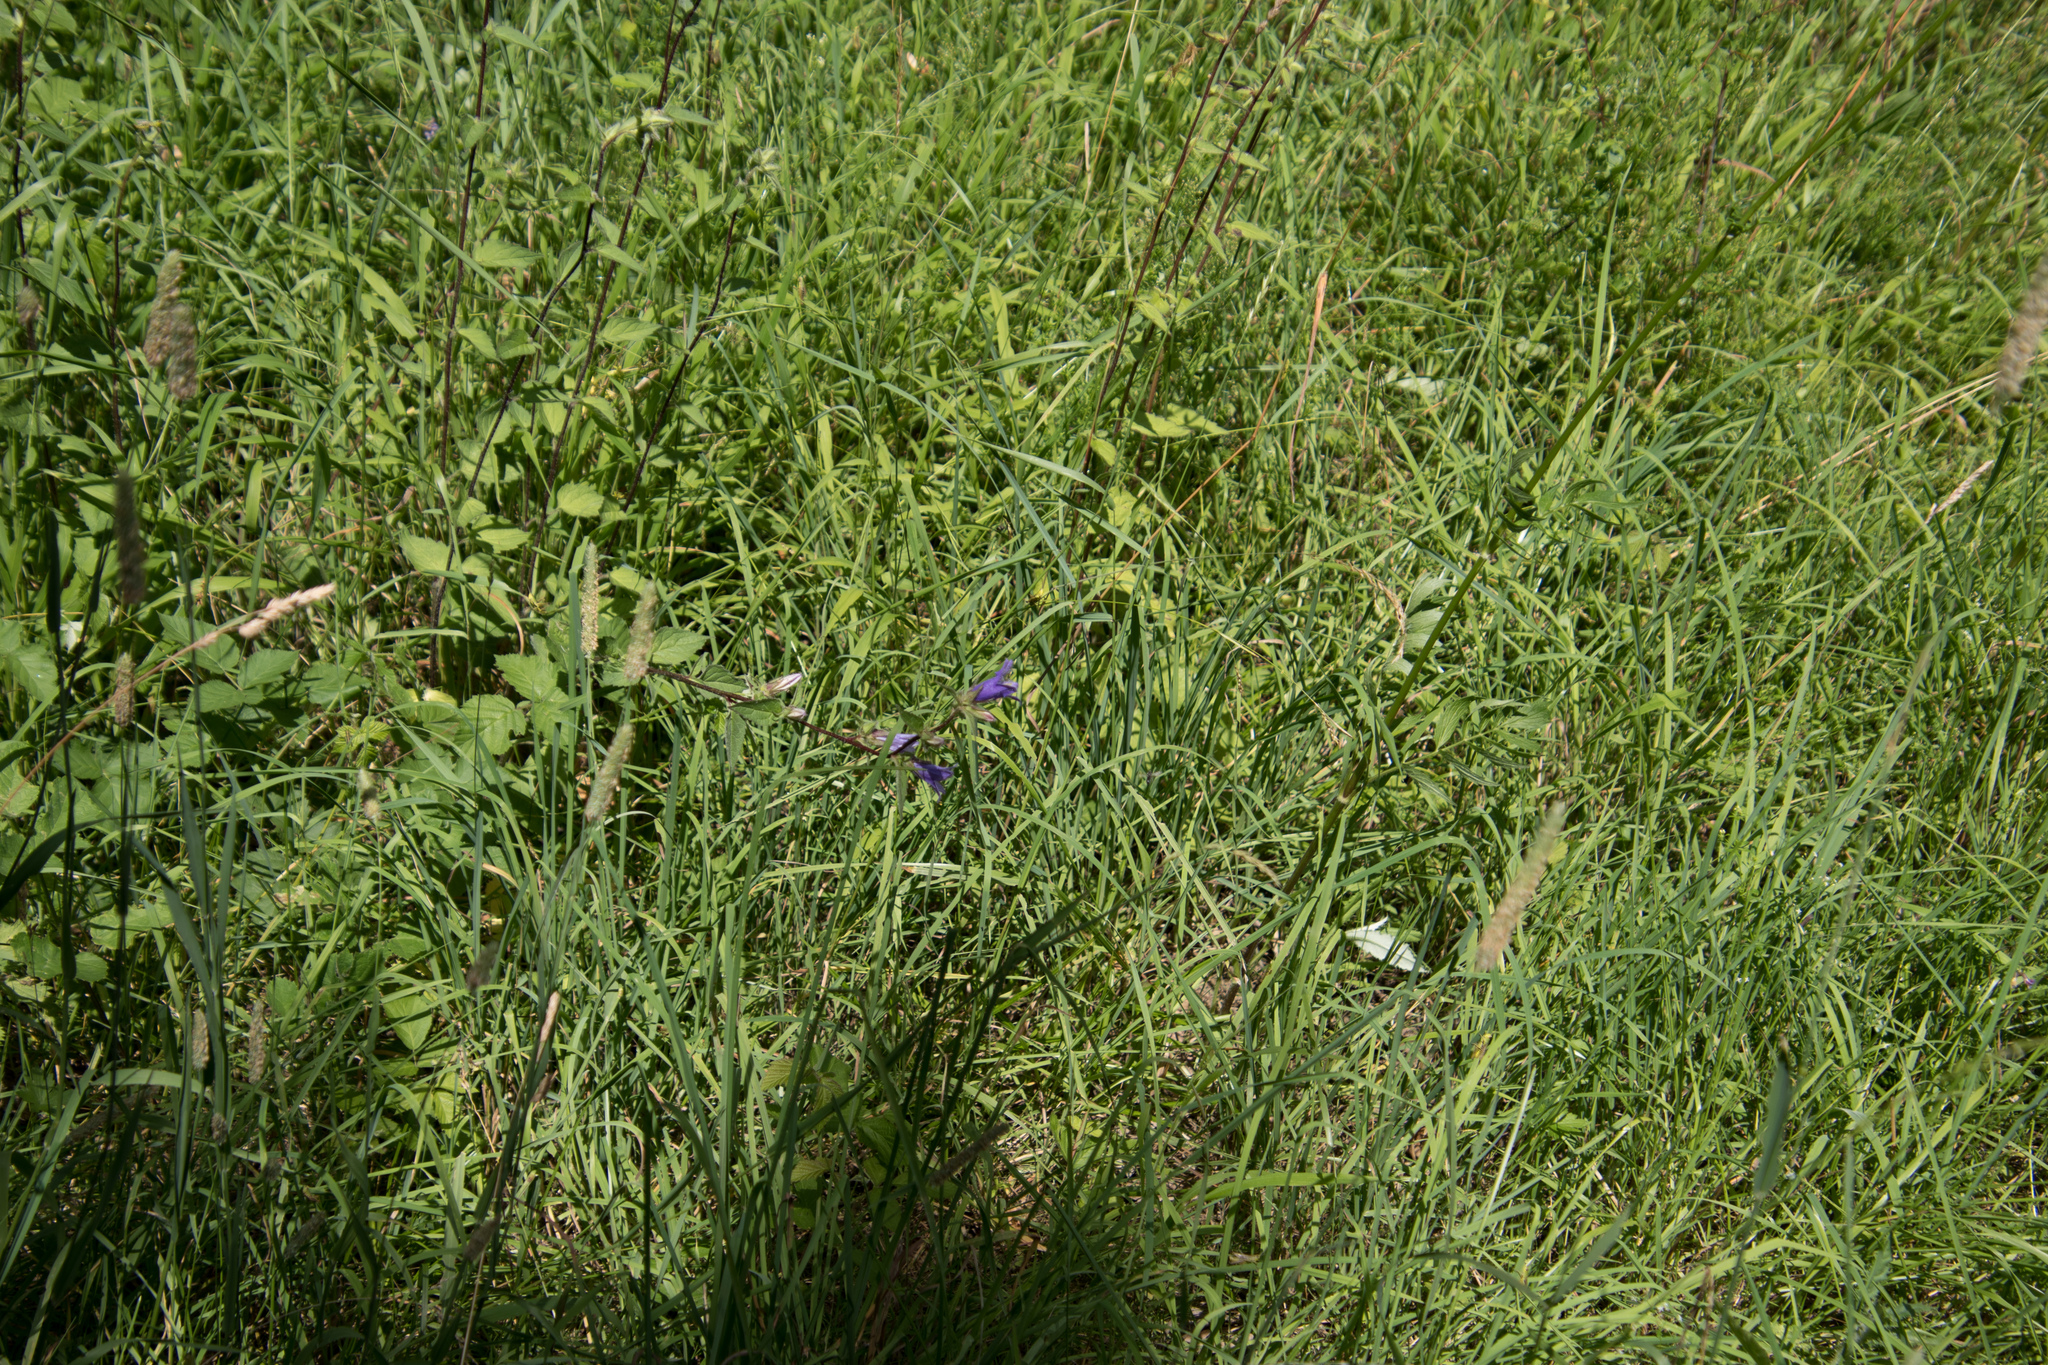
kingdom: Plantae
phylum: Tracheophyta
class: Magnoliopsida
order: Asterales
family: Campanulaceae
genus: Campanula
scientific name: Campanula trachelium
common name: Nettle-leaved bellflower
